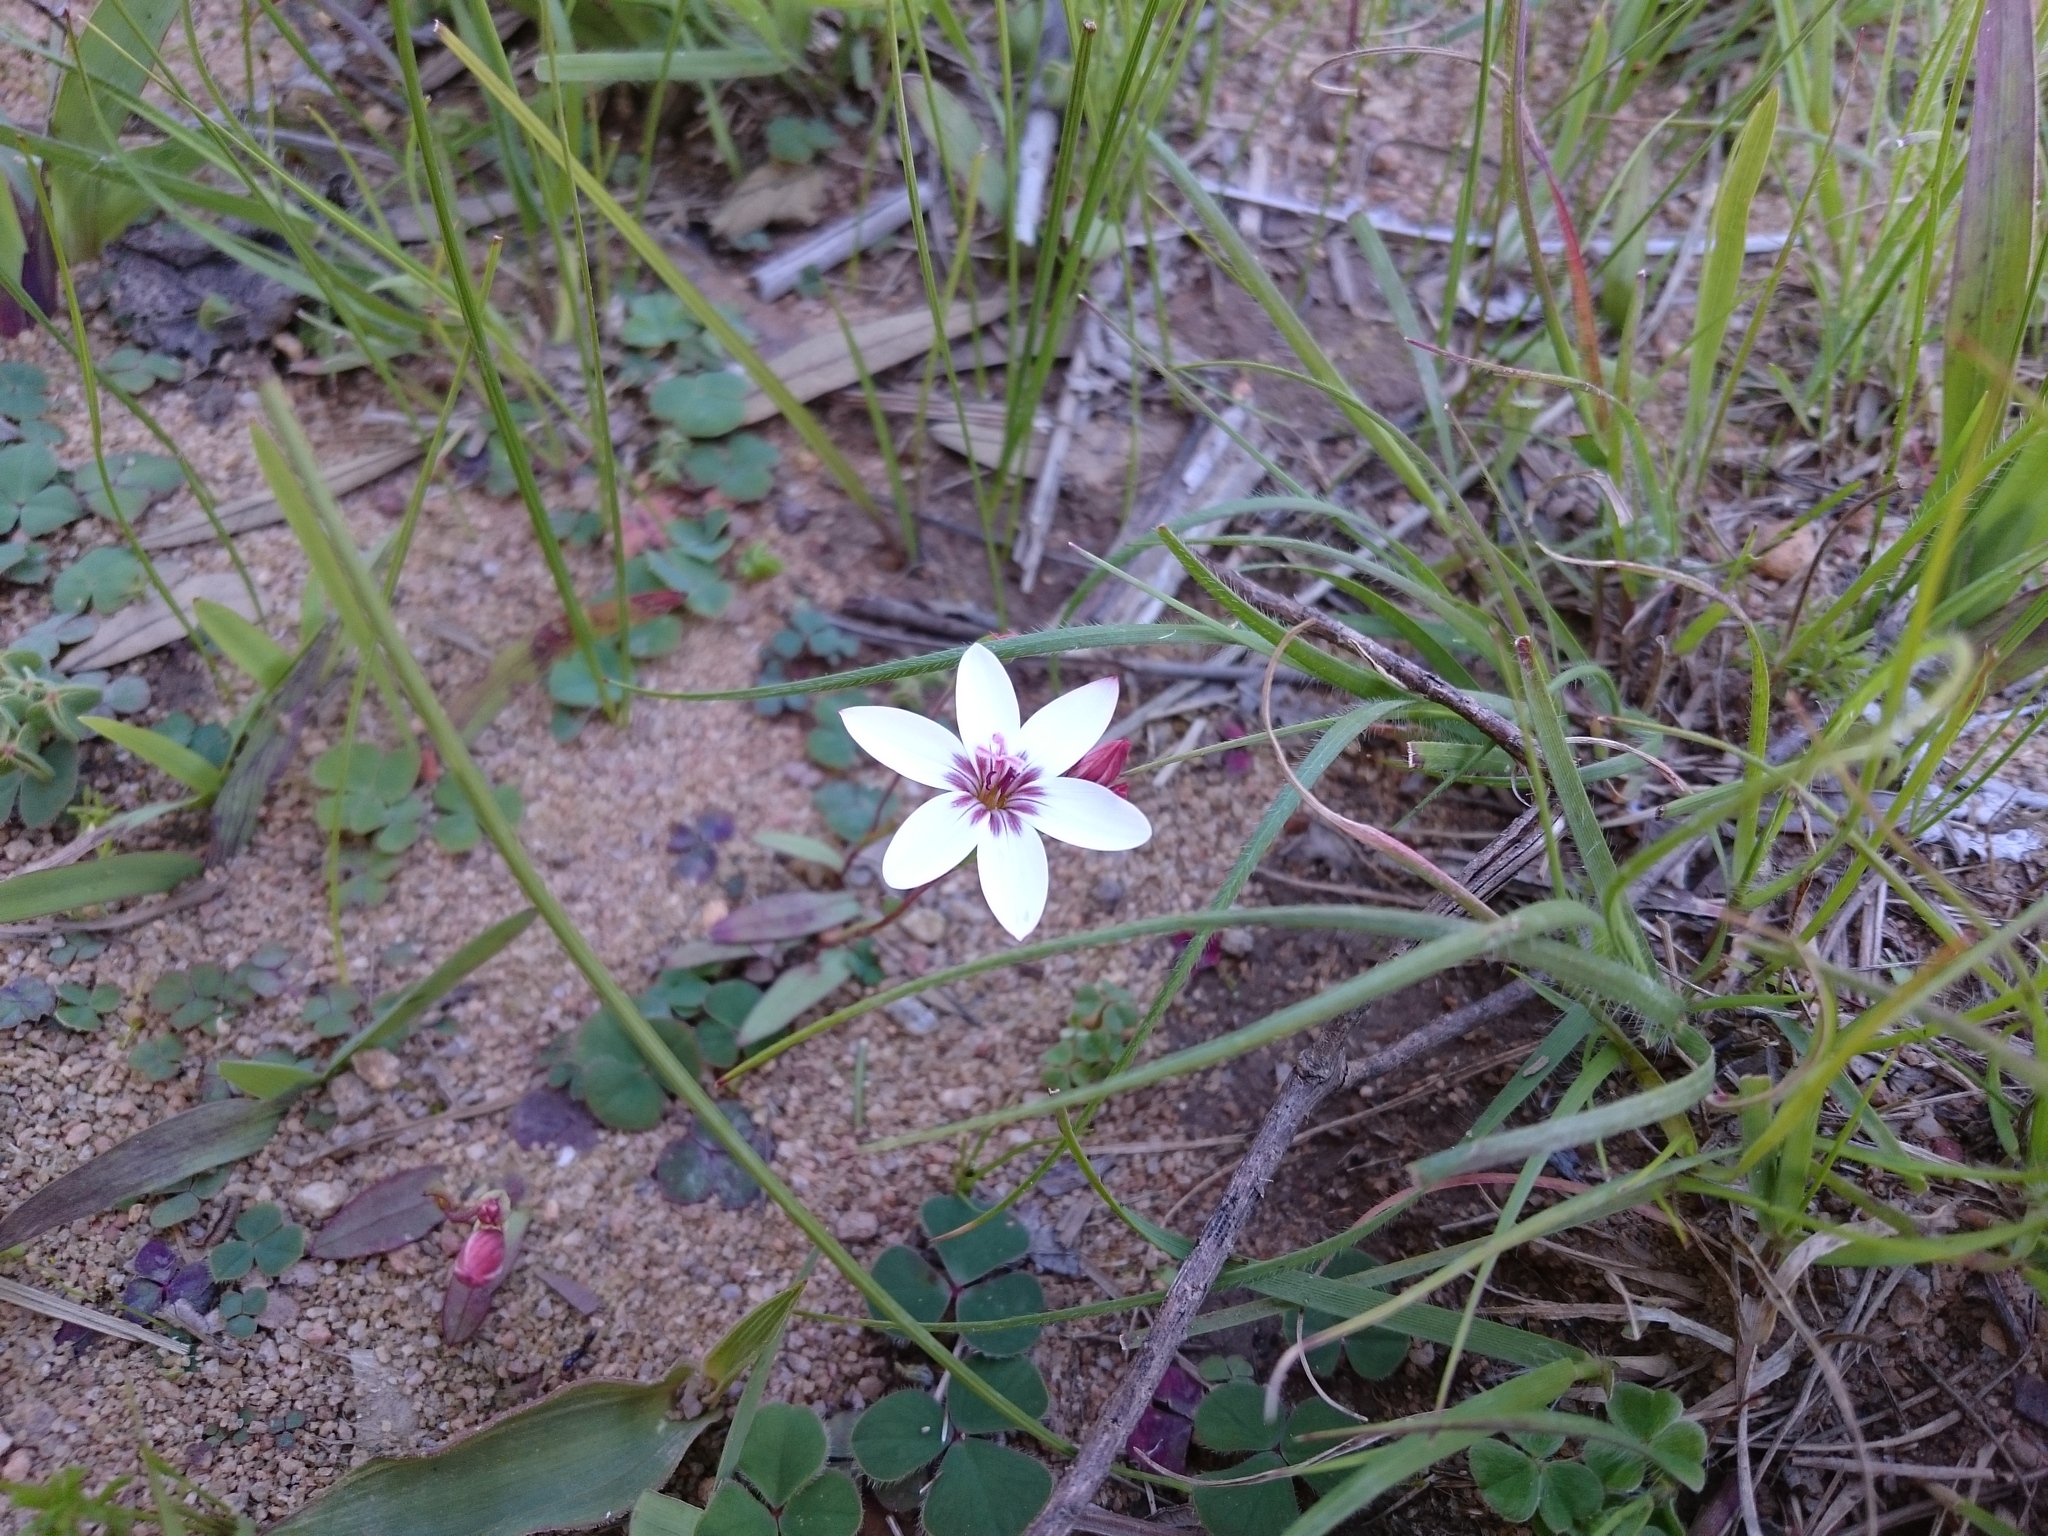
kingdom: Plantae
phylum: Tracheophyta
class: Liliopsida
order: Asparagales
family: Iridaceae
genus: Geissorhiza
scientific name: Geissorhiza ovata
